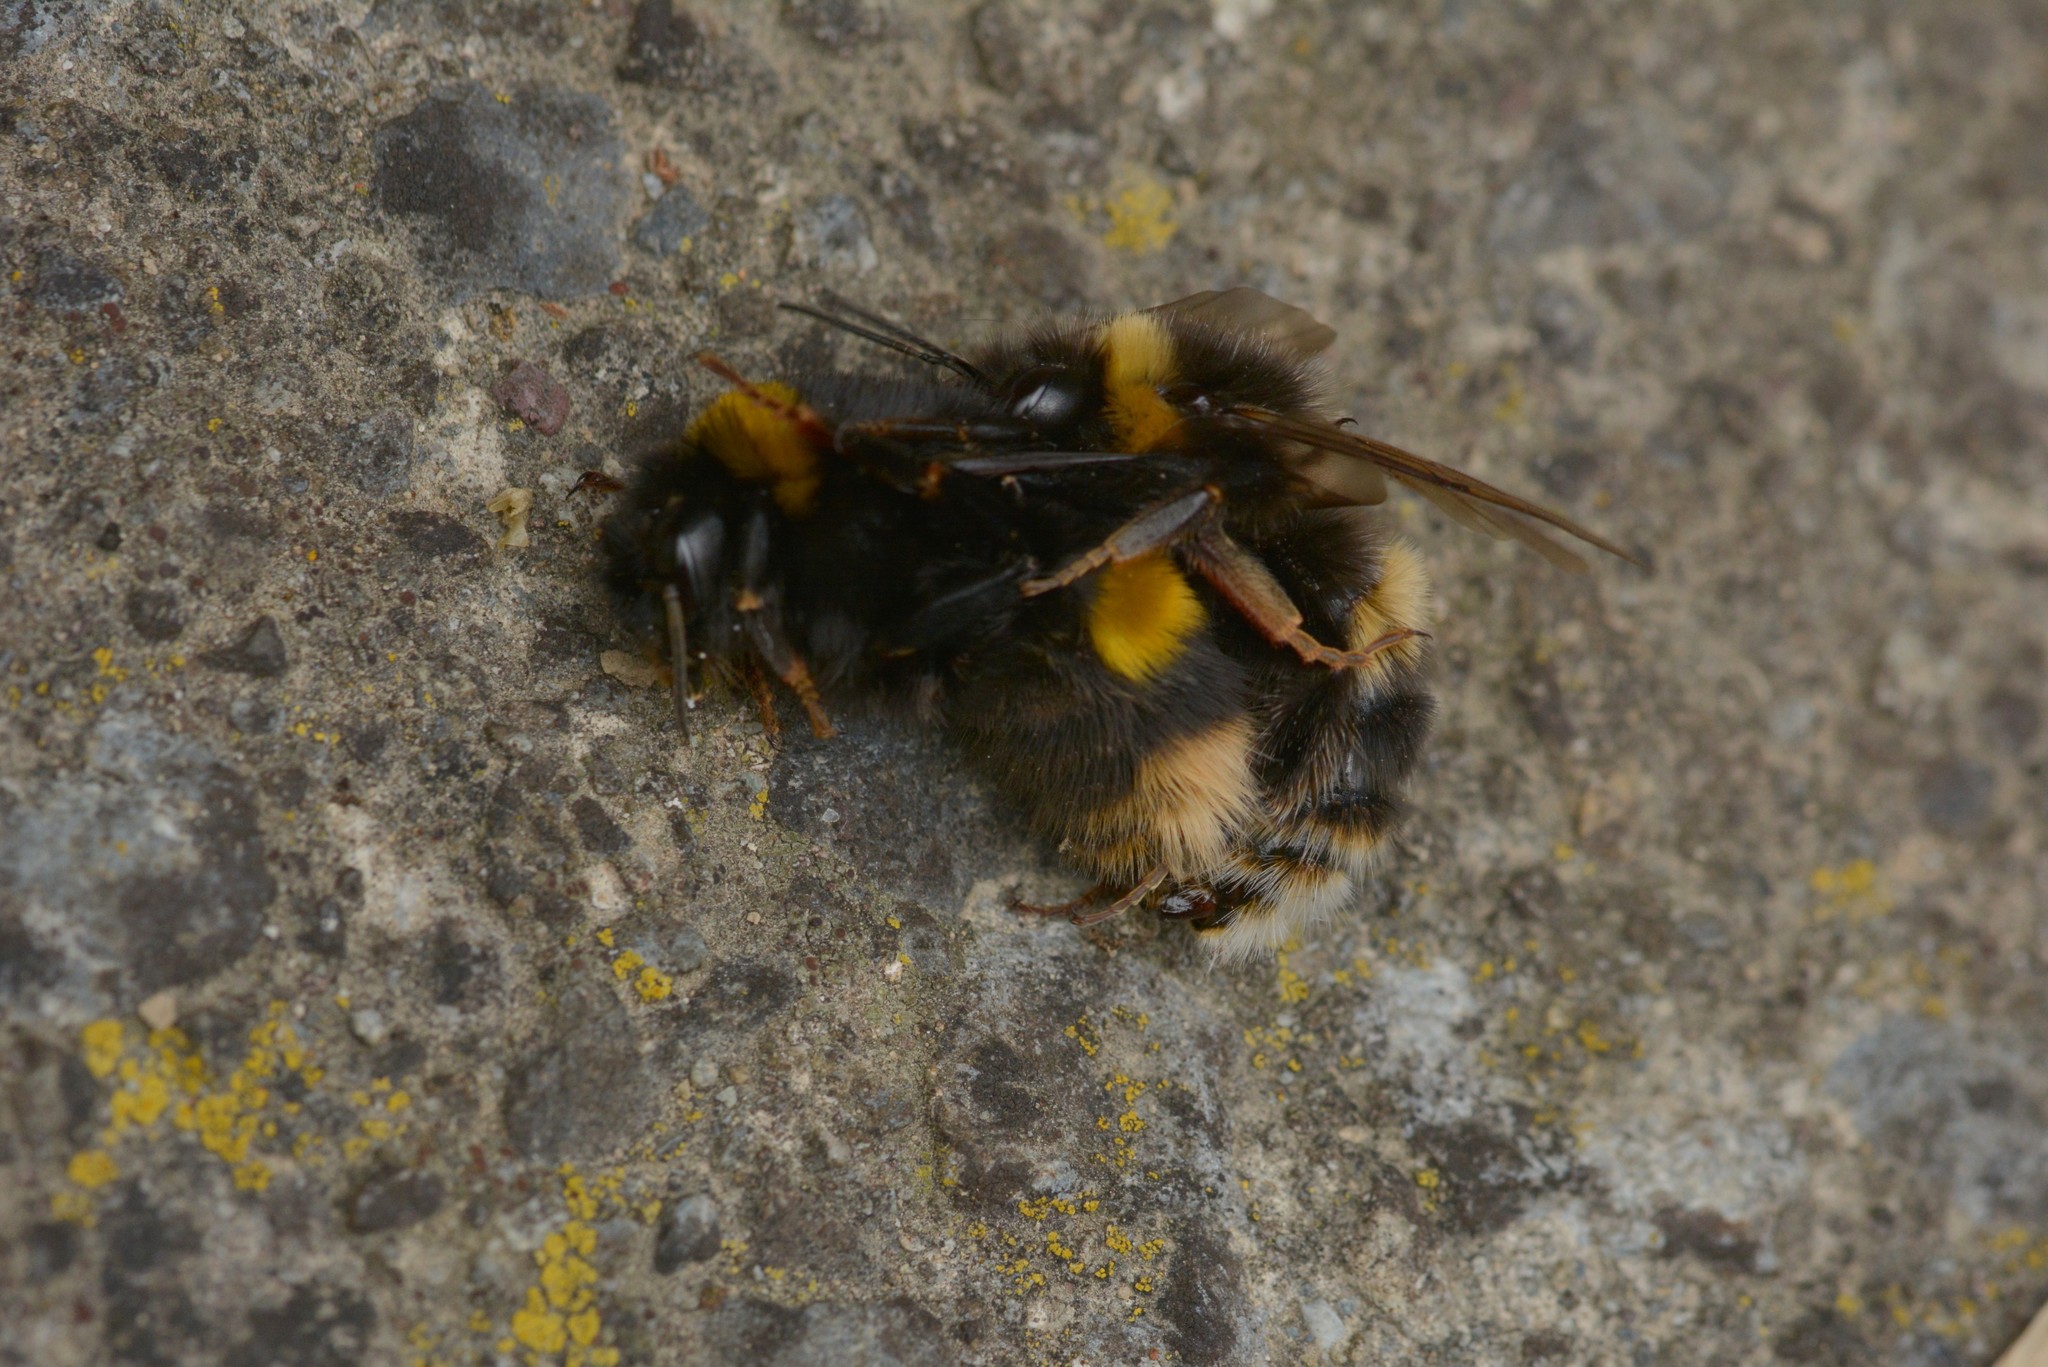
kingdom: Animalia
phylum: Arthropoda
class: Insecta
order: Hymenoptera
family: Apidae
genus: Bombus
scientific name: Bombus terrestris
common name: Buff-tailed bumblebee
